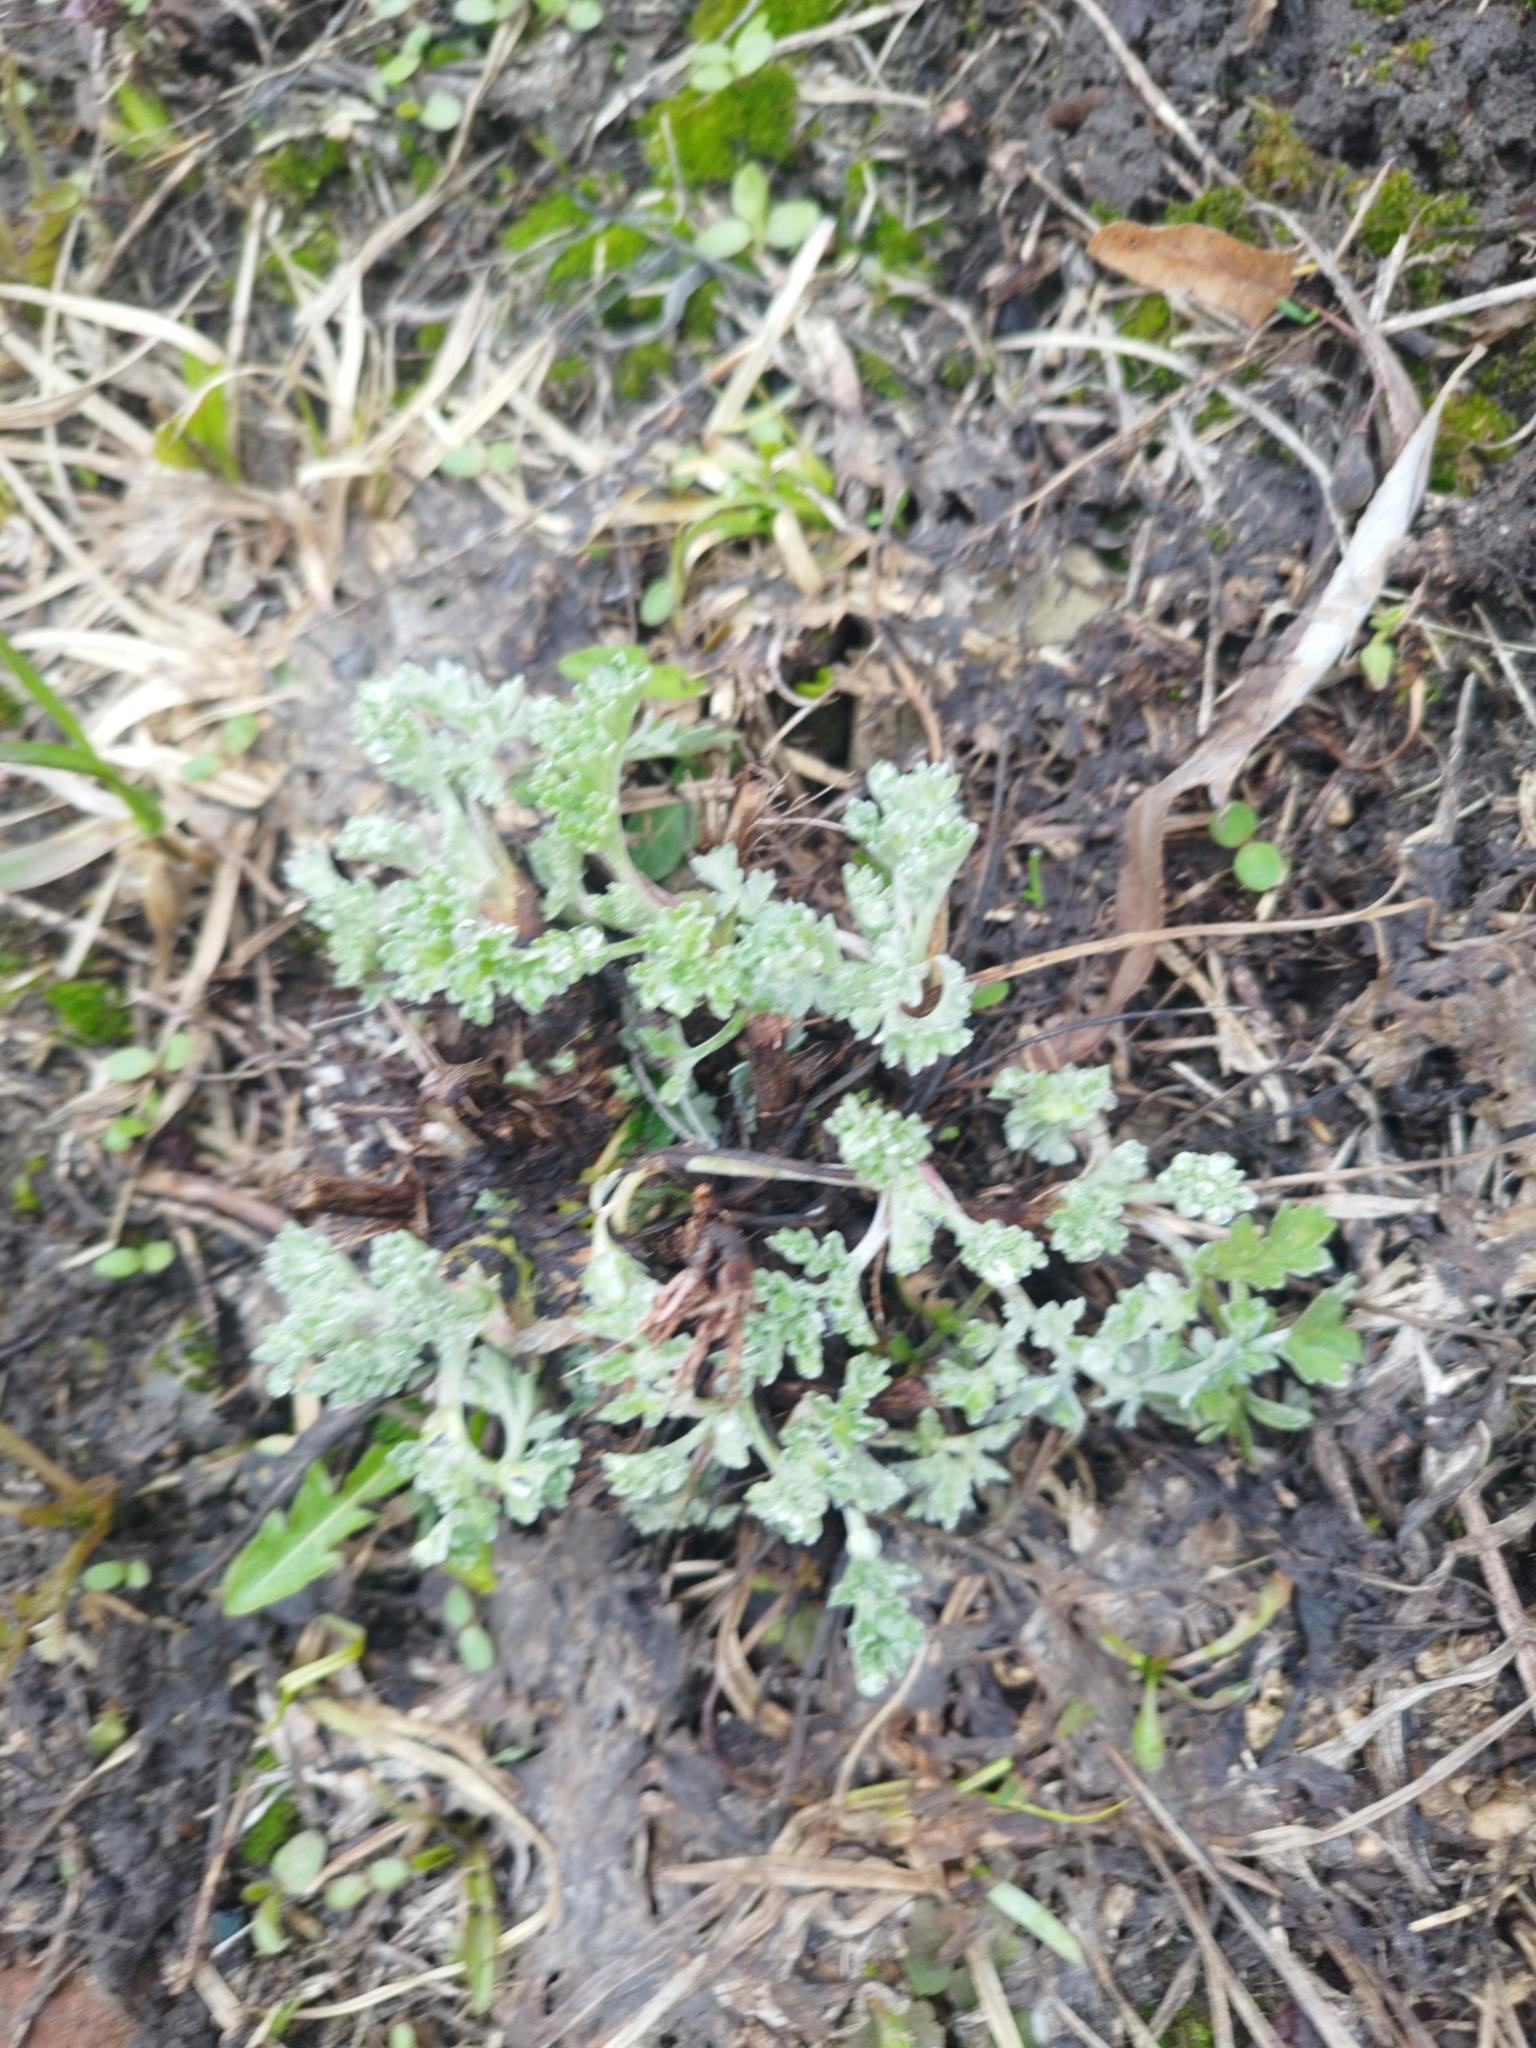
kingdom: Plantae
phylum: Tracheophyta
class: Magnoliopsida
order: Asterales
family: Asteraceae
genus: Artemisia
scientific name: Artemisia absinthium
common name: Wormwood
